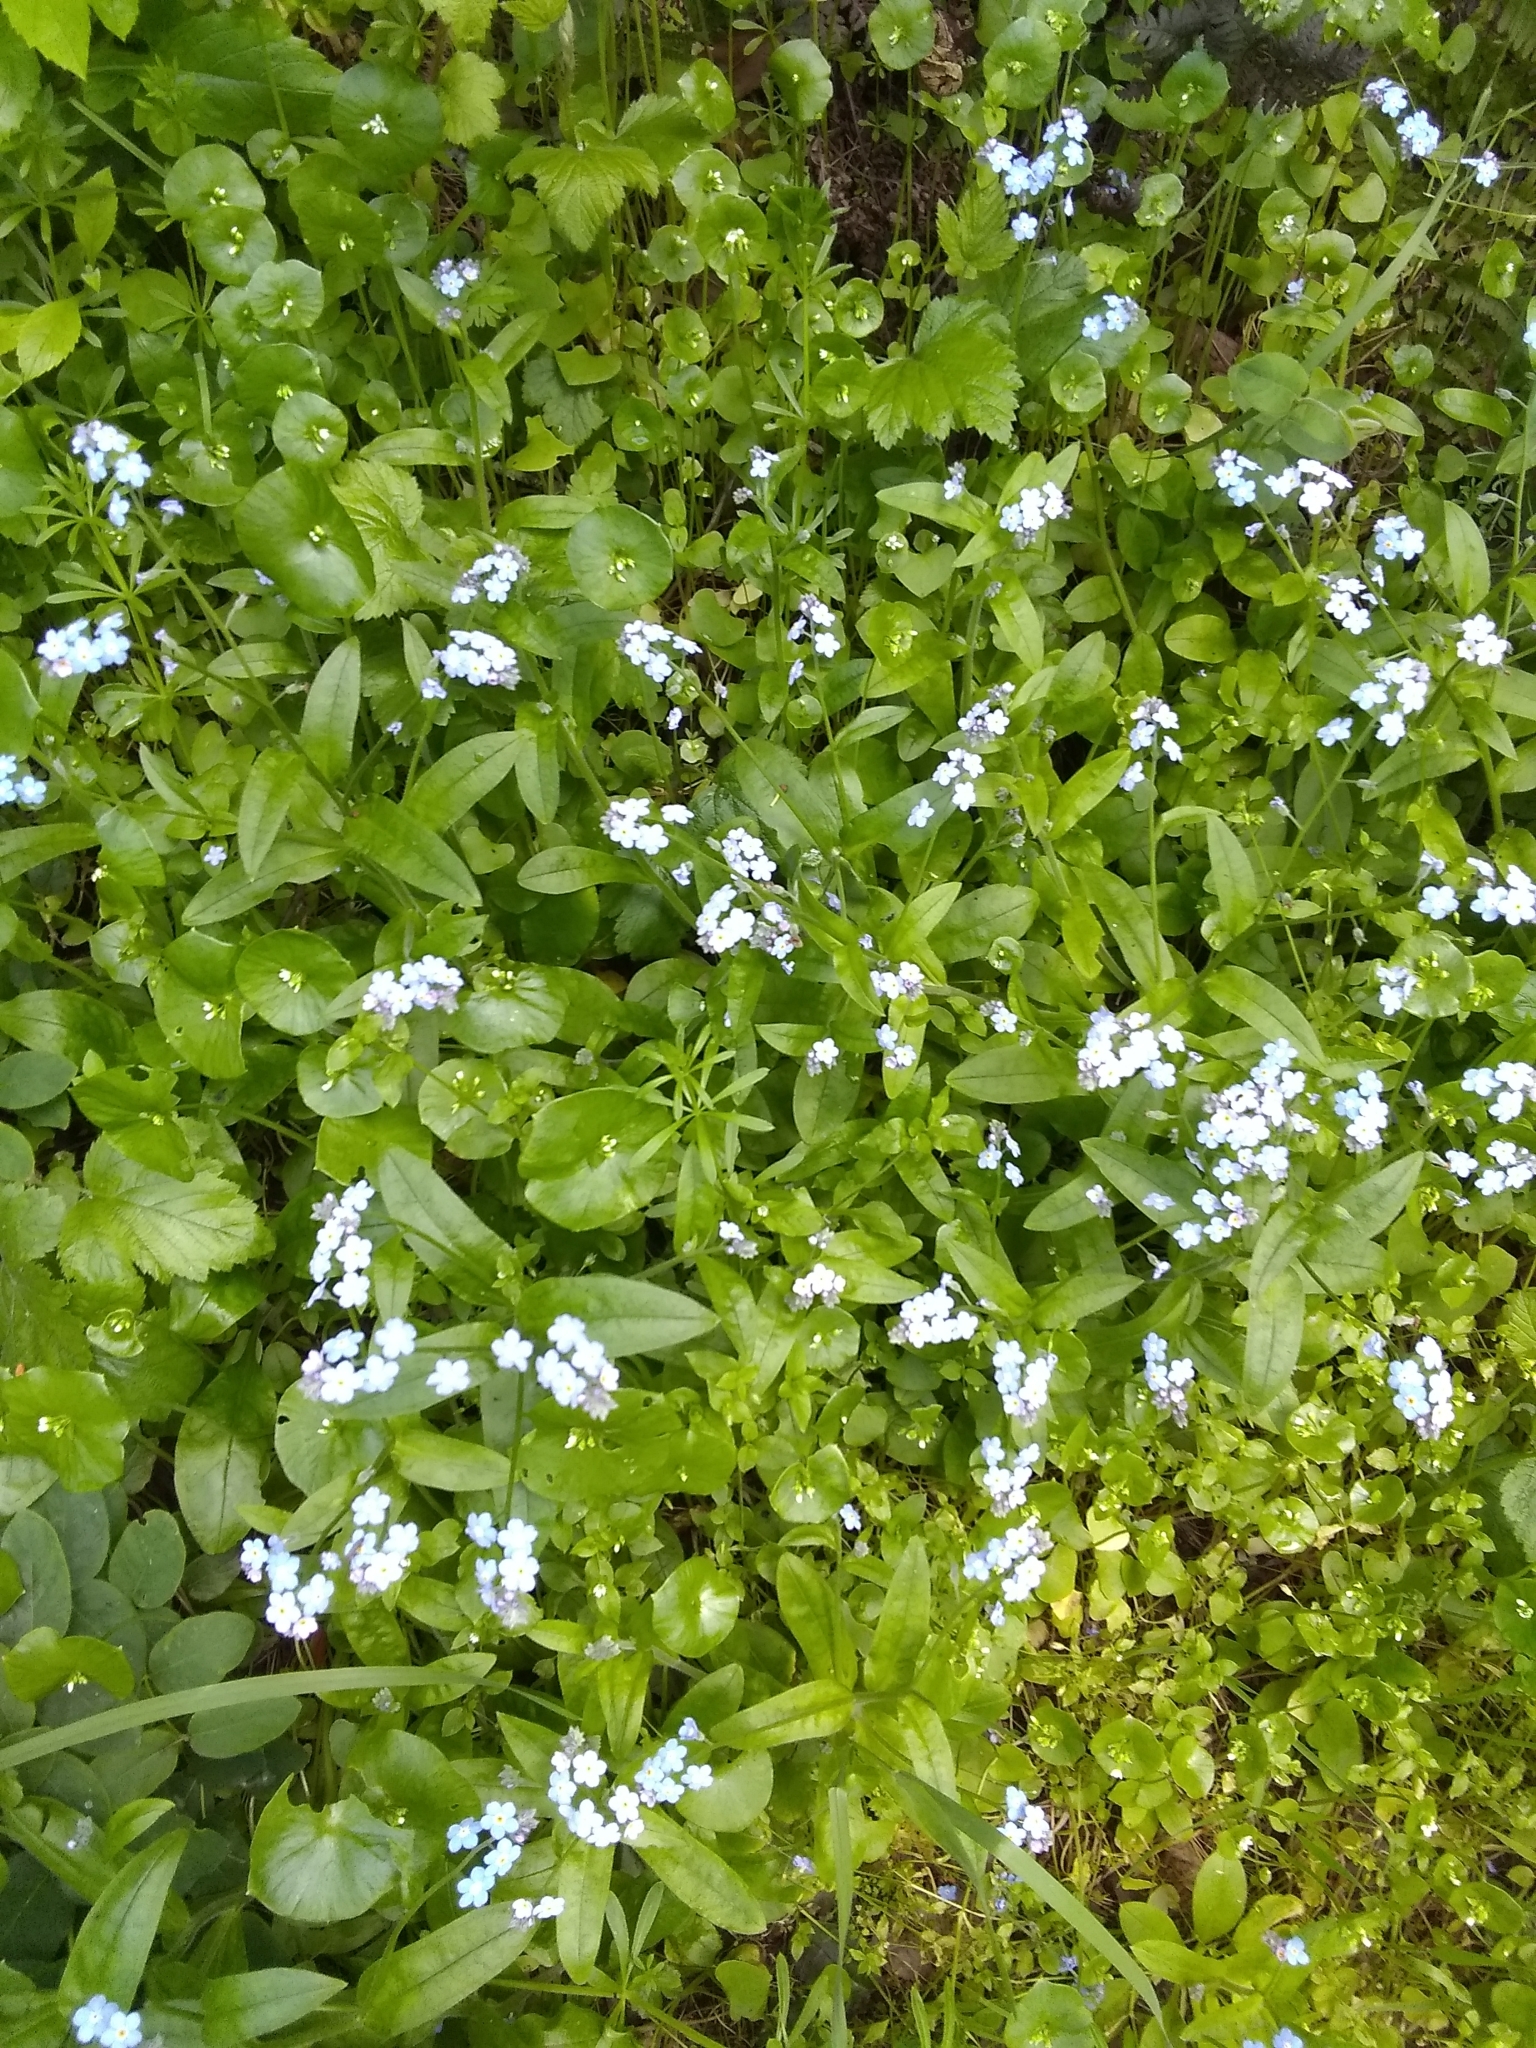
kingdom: Plantae
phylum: Tracheophyta
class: Magnoliopsida
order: Boraginales
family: Boraginaceae
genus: Myosotis
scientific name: Myosotis latifolia
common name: Broadleaf forget-me-not
